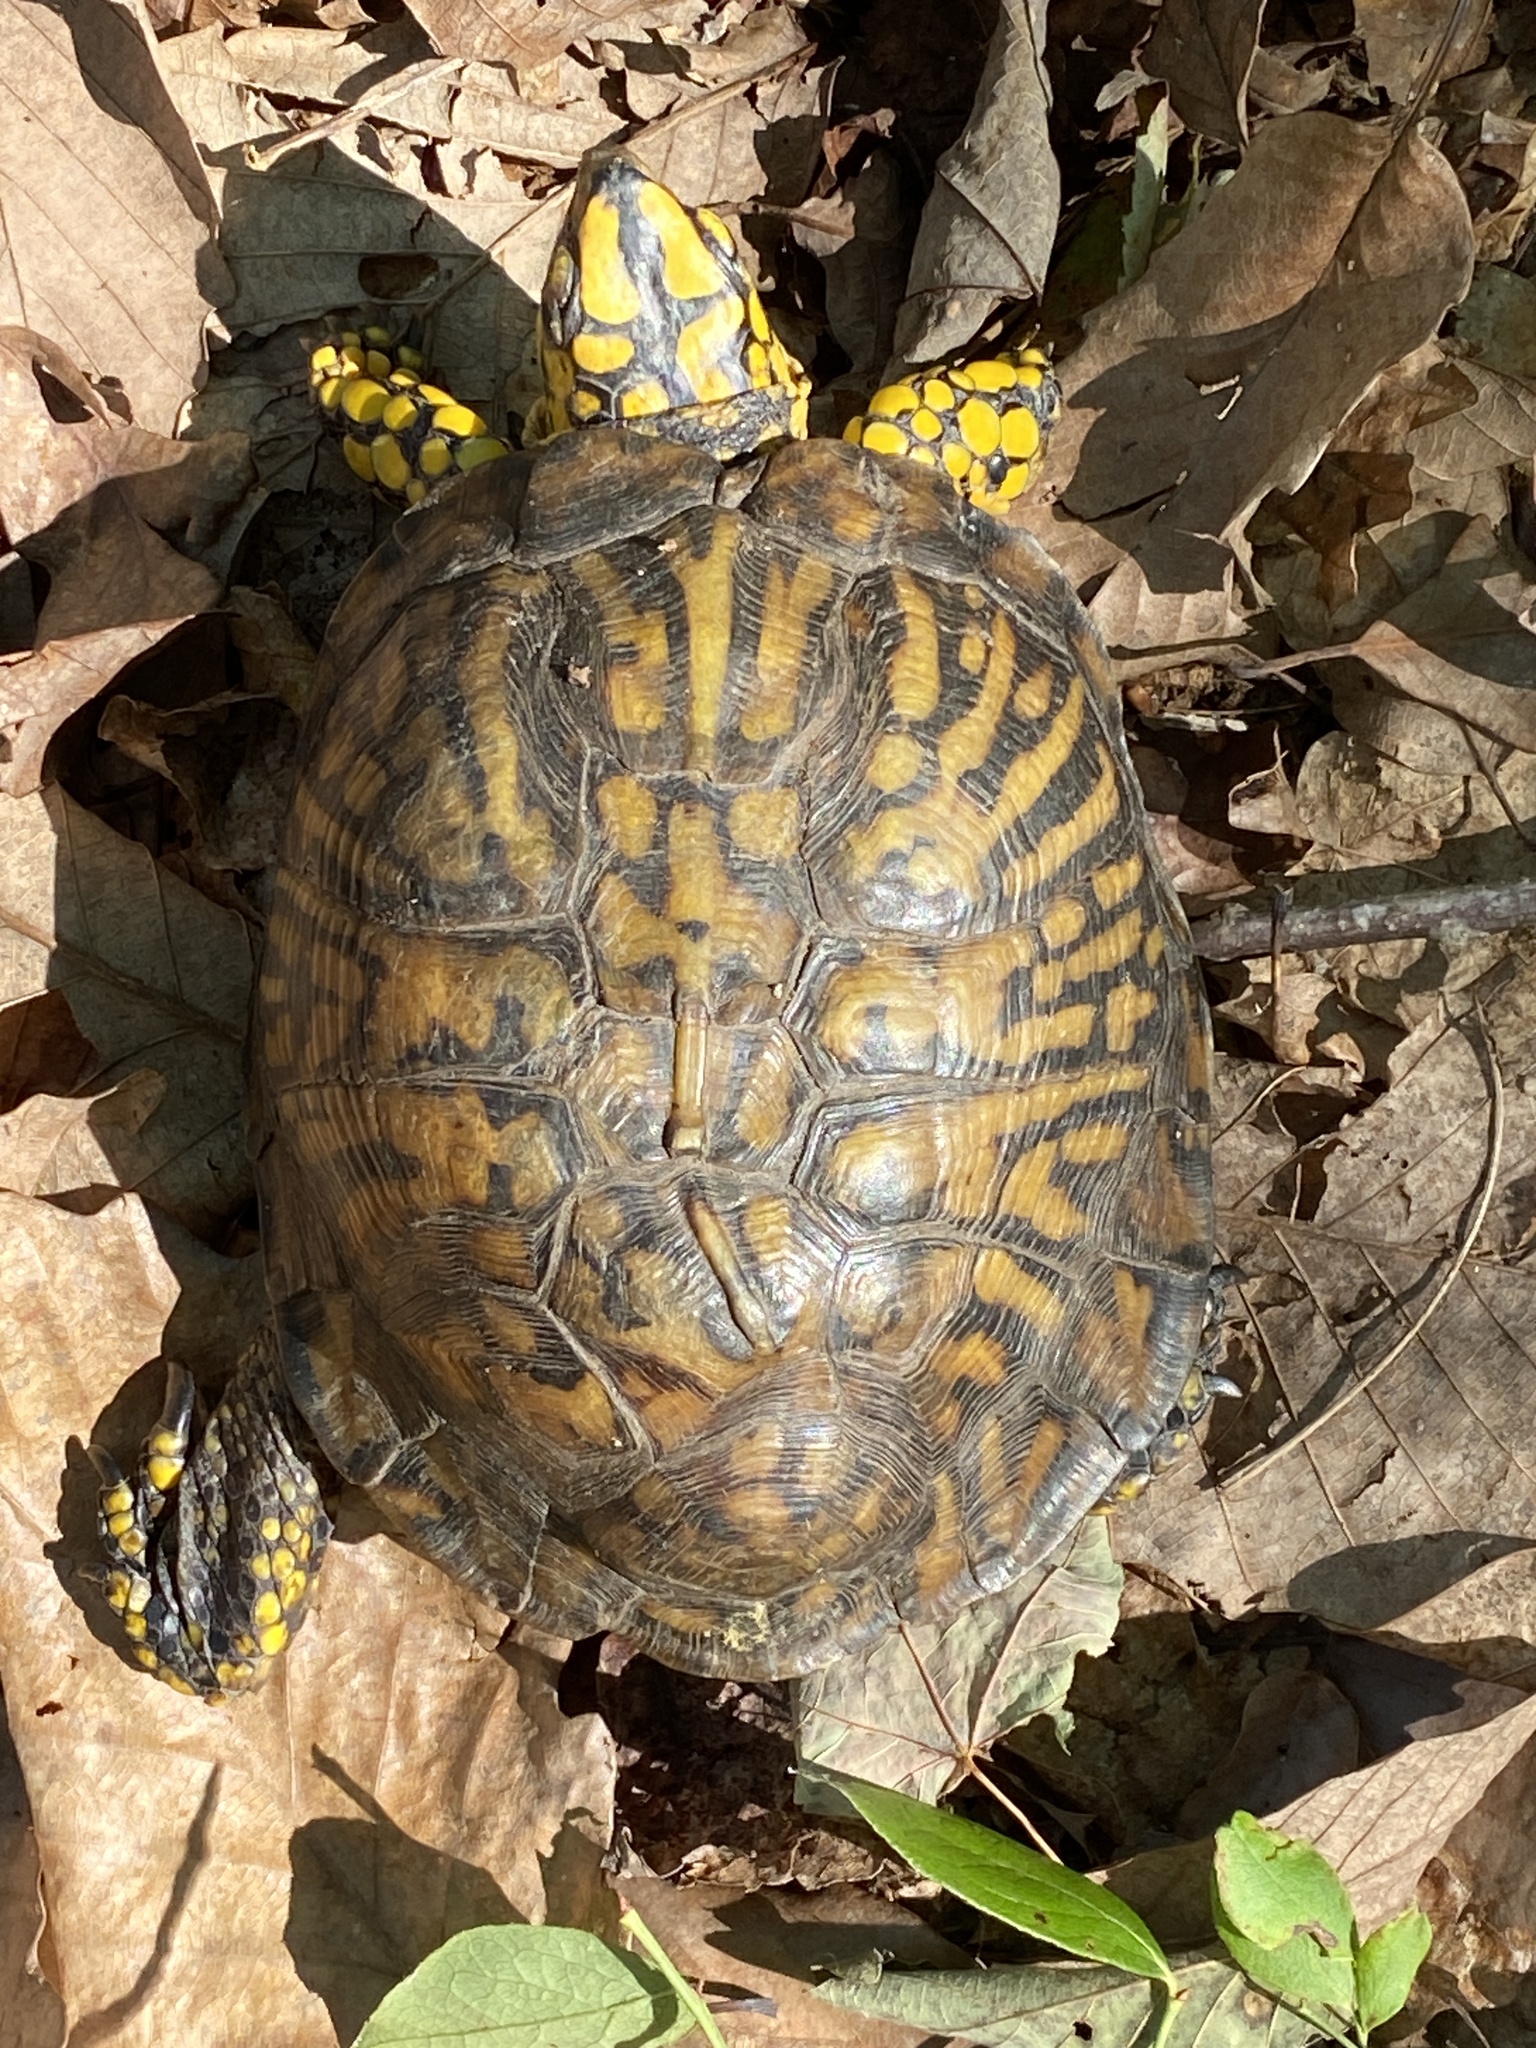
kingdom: Animalia
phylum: Chordata
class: Testudines
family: Emydidae
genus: Terrapene
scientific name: Terrapene carolina
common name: Common box turtle
